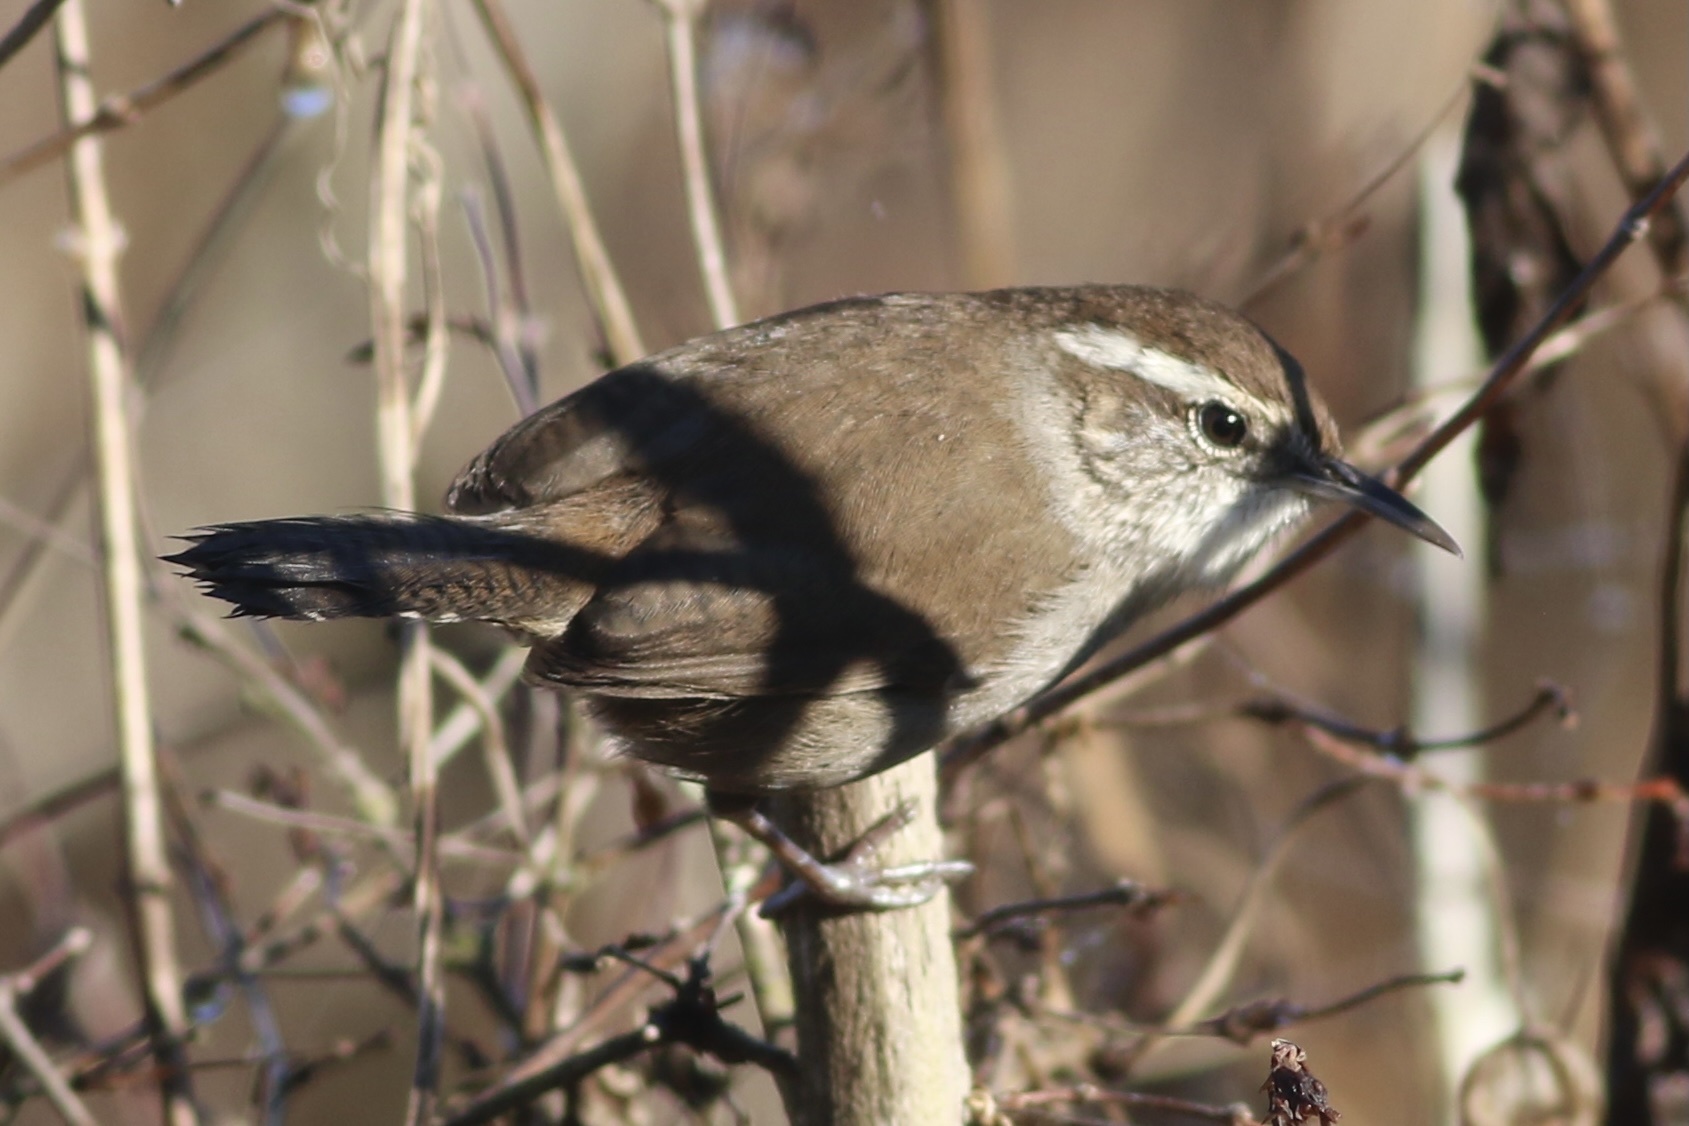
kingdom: Animalia
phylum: Chordata
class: Aves
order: Passeriformes
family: Troglodytidae
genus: Thryomanes
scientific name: Thryomanes bewickii
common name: Bewick's wren
